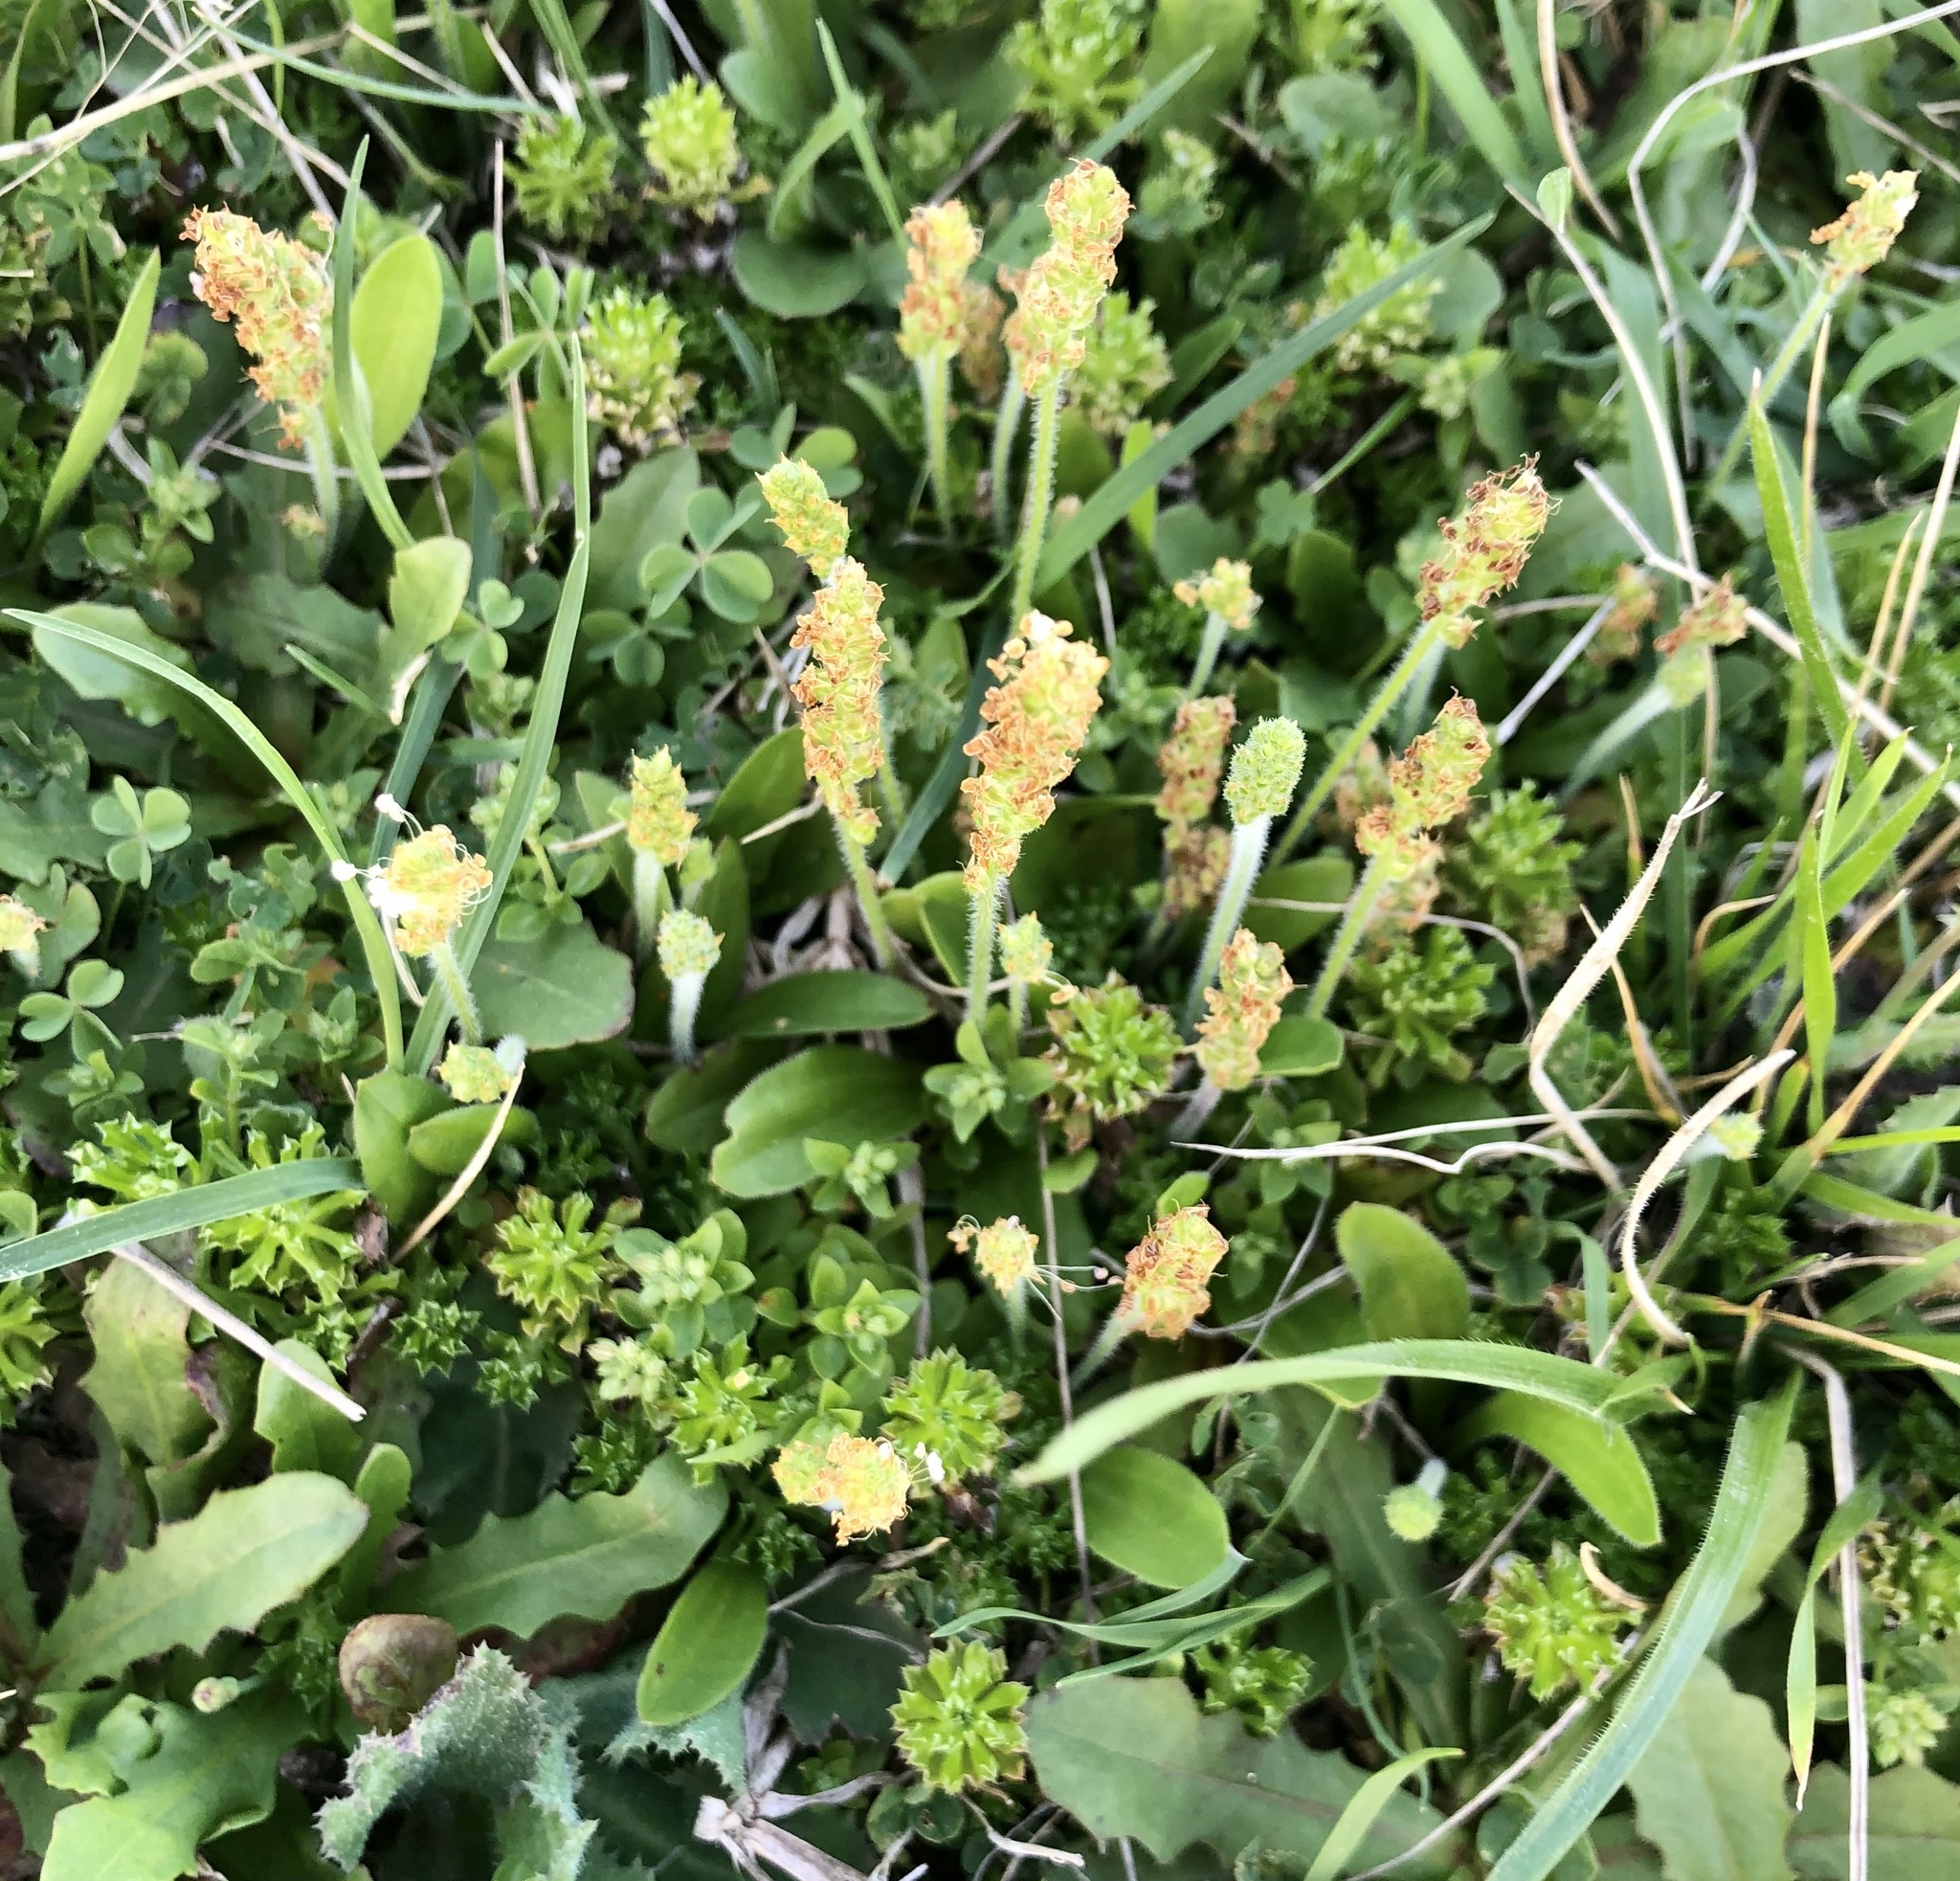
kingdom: Plantae
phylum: Tracheophyta
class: Magnoliopsida
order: Lamiales
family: Plantaginaceae
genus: Plantago
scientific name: Plantago virginica
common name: Hoary plantain
